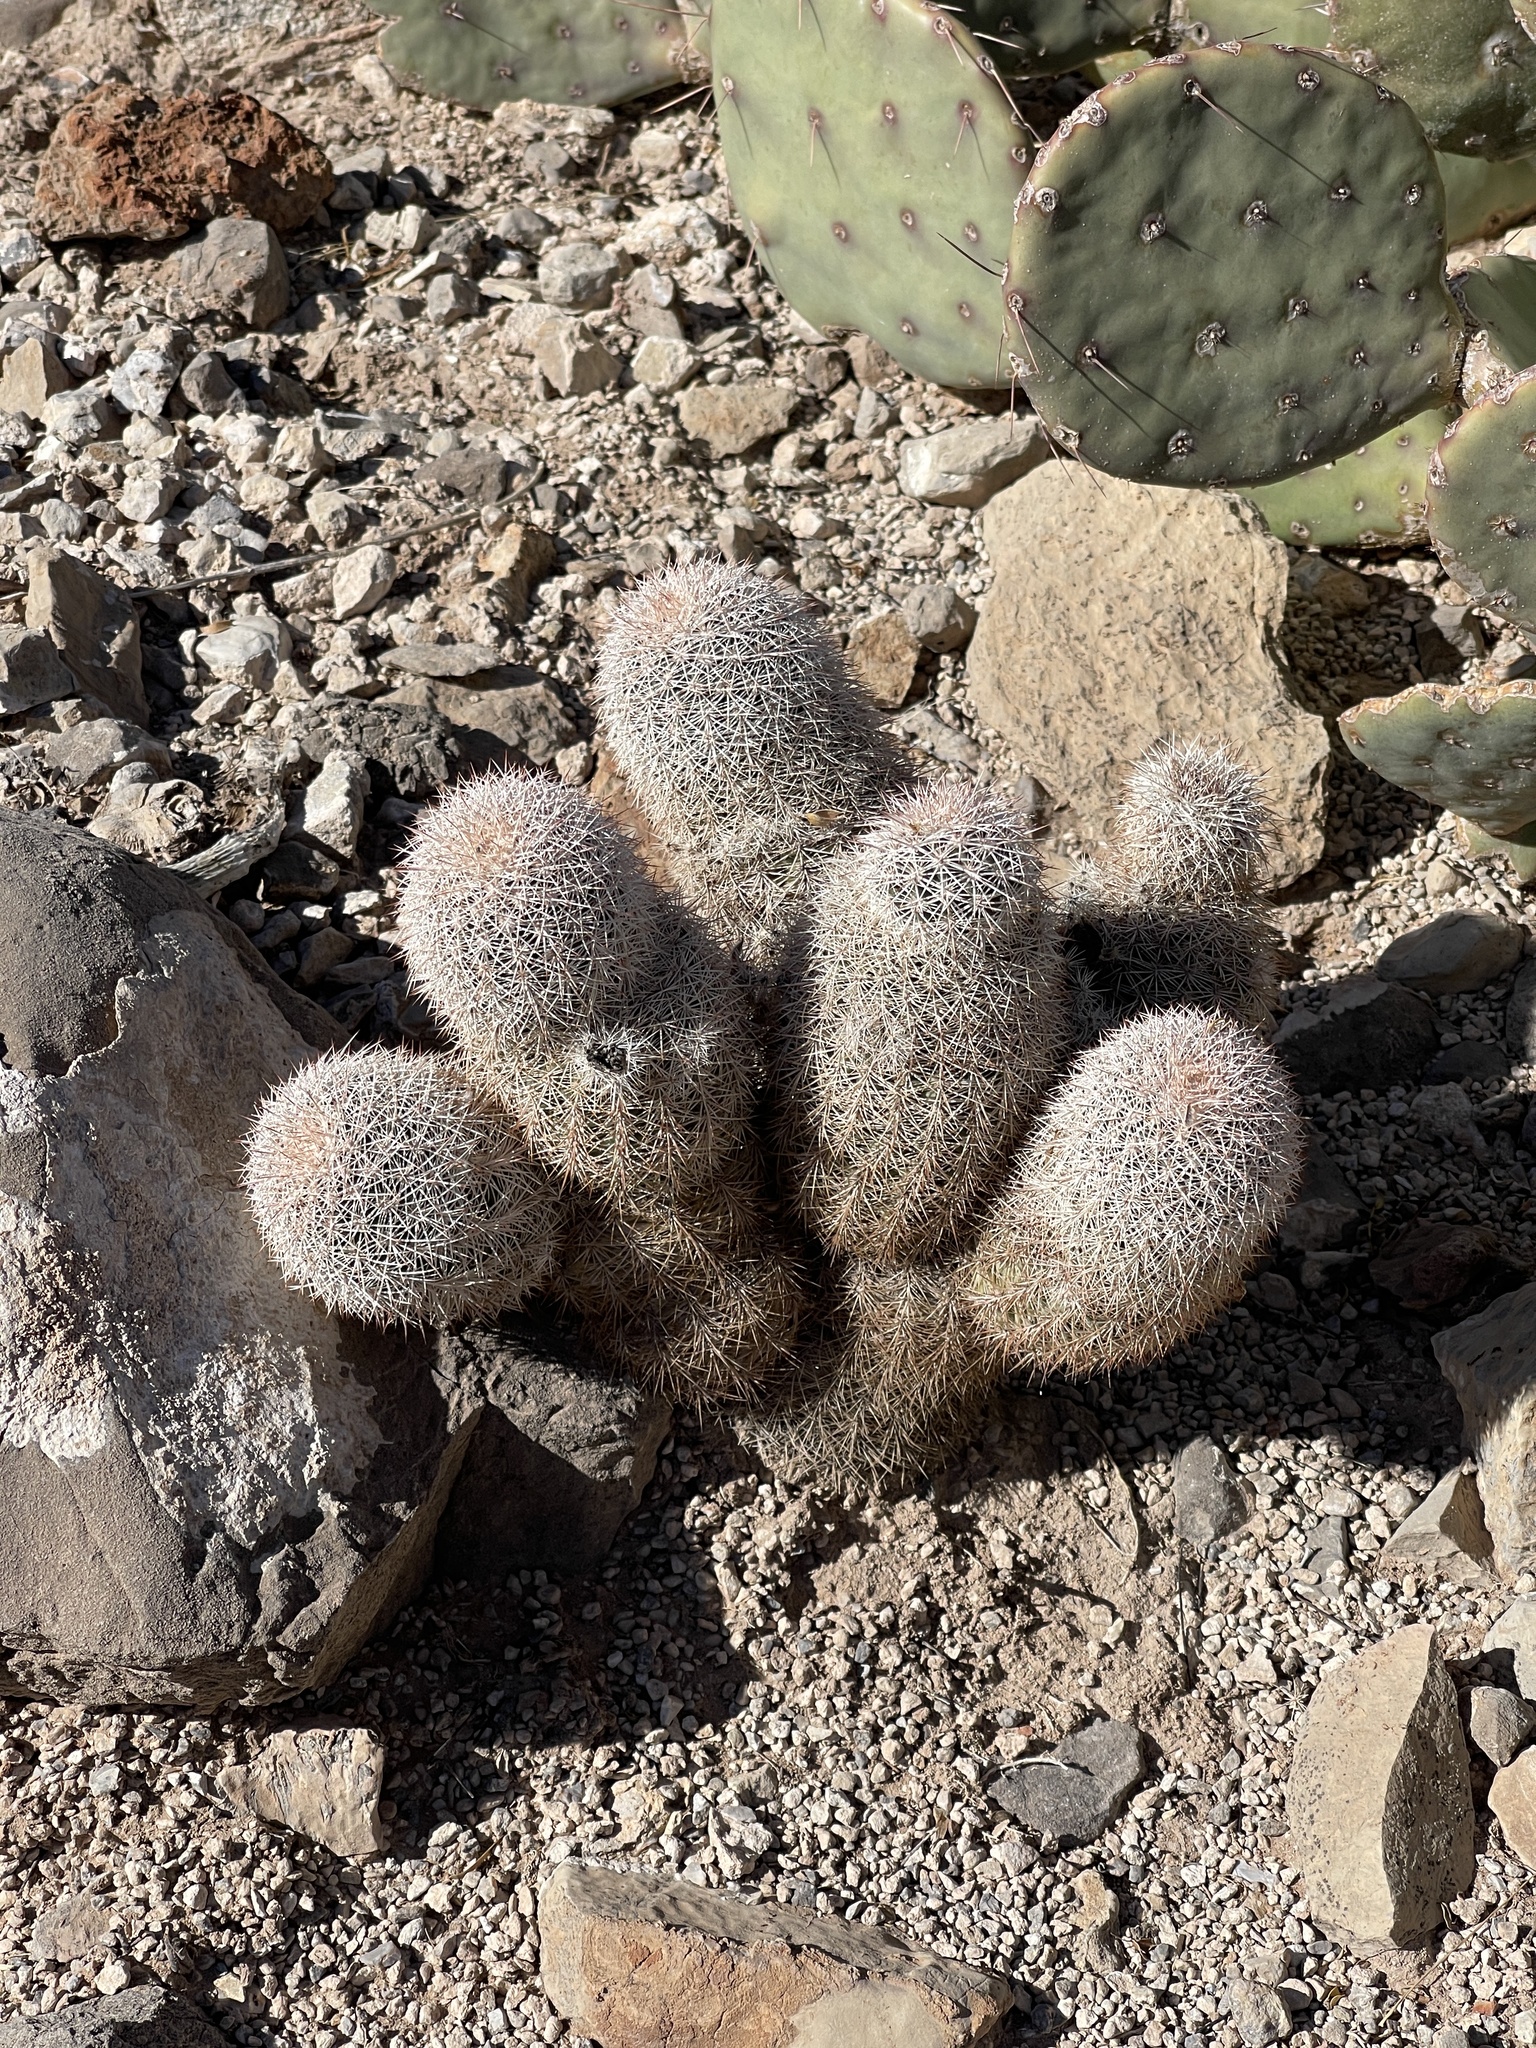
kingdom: Plantae
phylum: Tracheophyta
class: Magnoliopsida
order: Caryophyllales
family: Cactaceae
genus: Echinocereus
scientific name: Echinocereus dasyacanthus
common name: Spiny hedgehog cactus
